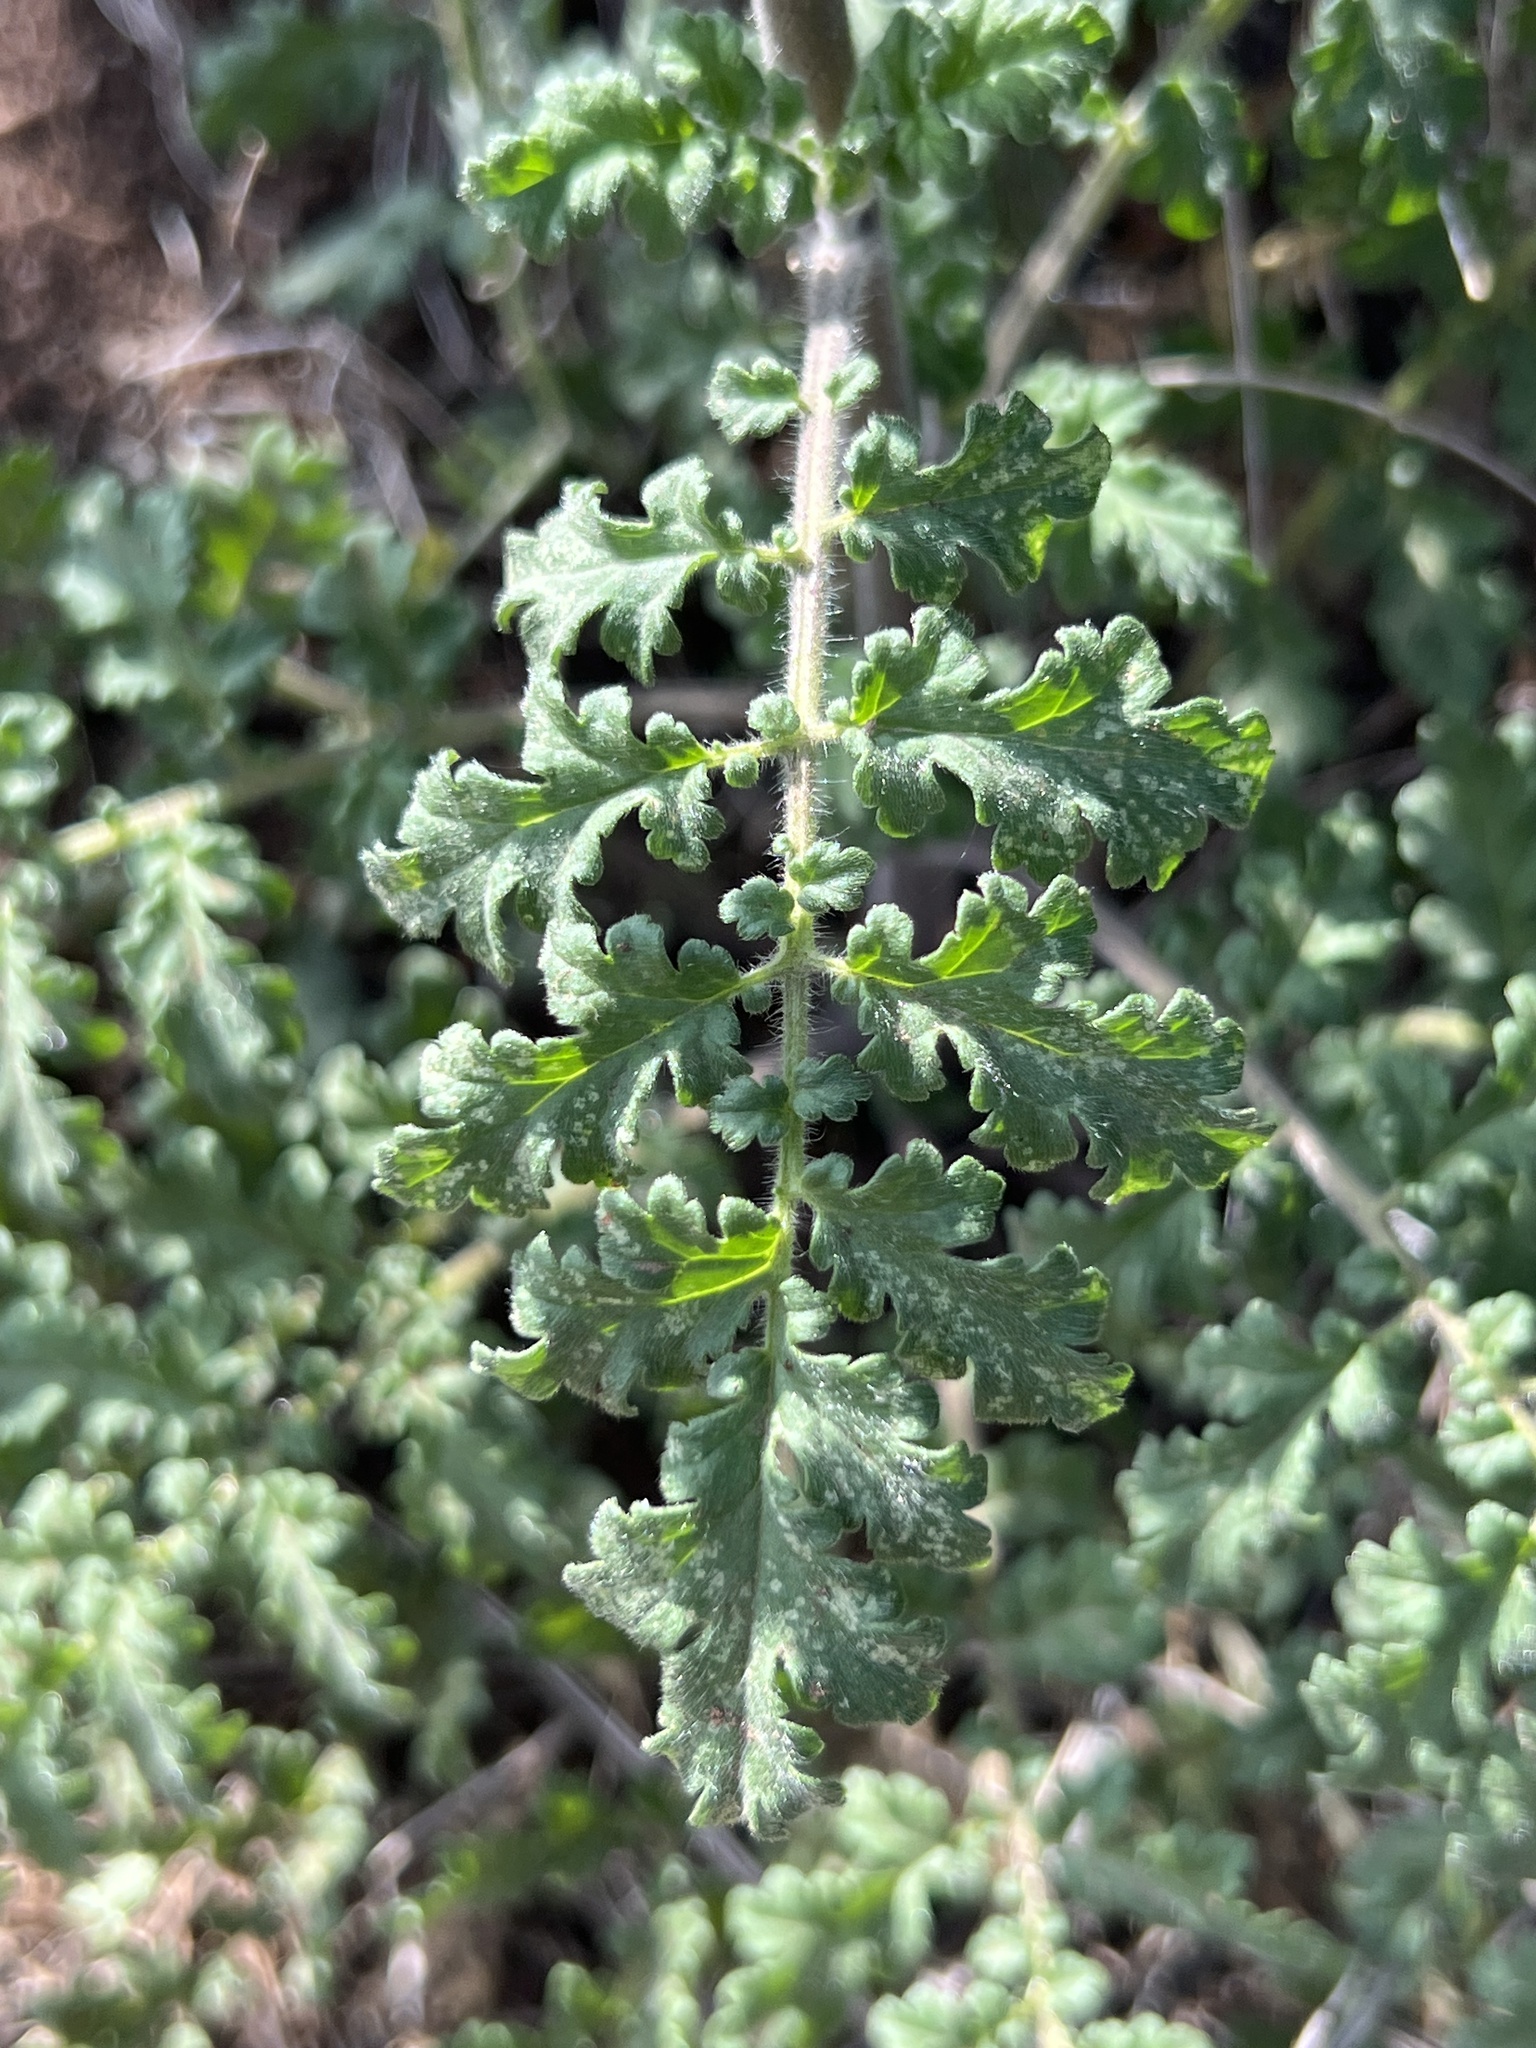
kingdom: Plantae
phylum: Tracheophyta
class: Magnoliopsida
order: Boraginales
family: Hydrophyllaceae
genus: Phacelia
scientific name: Phacelia congesta
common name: Blue curls
